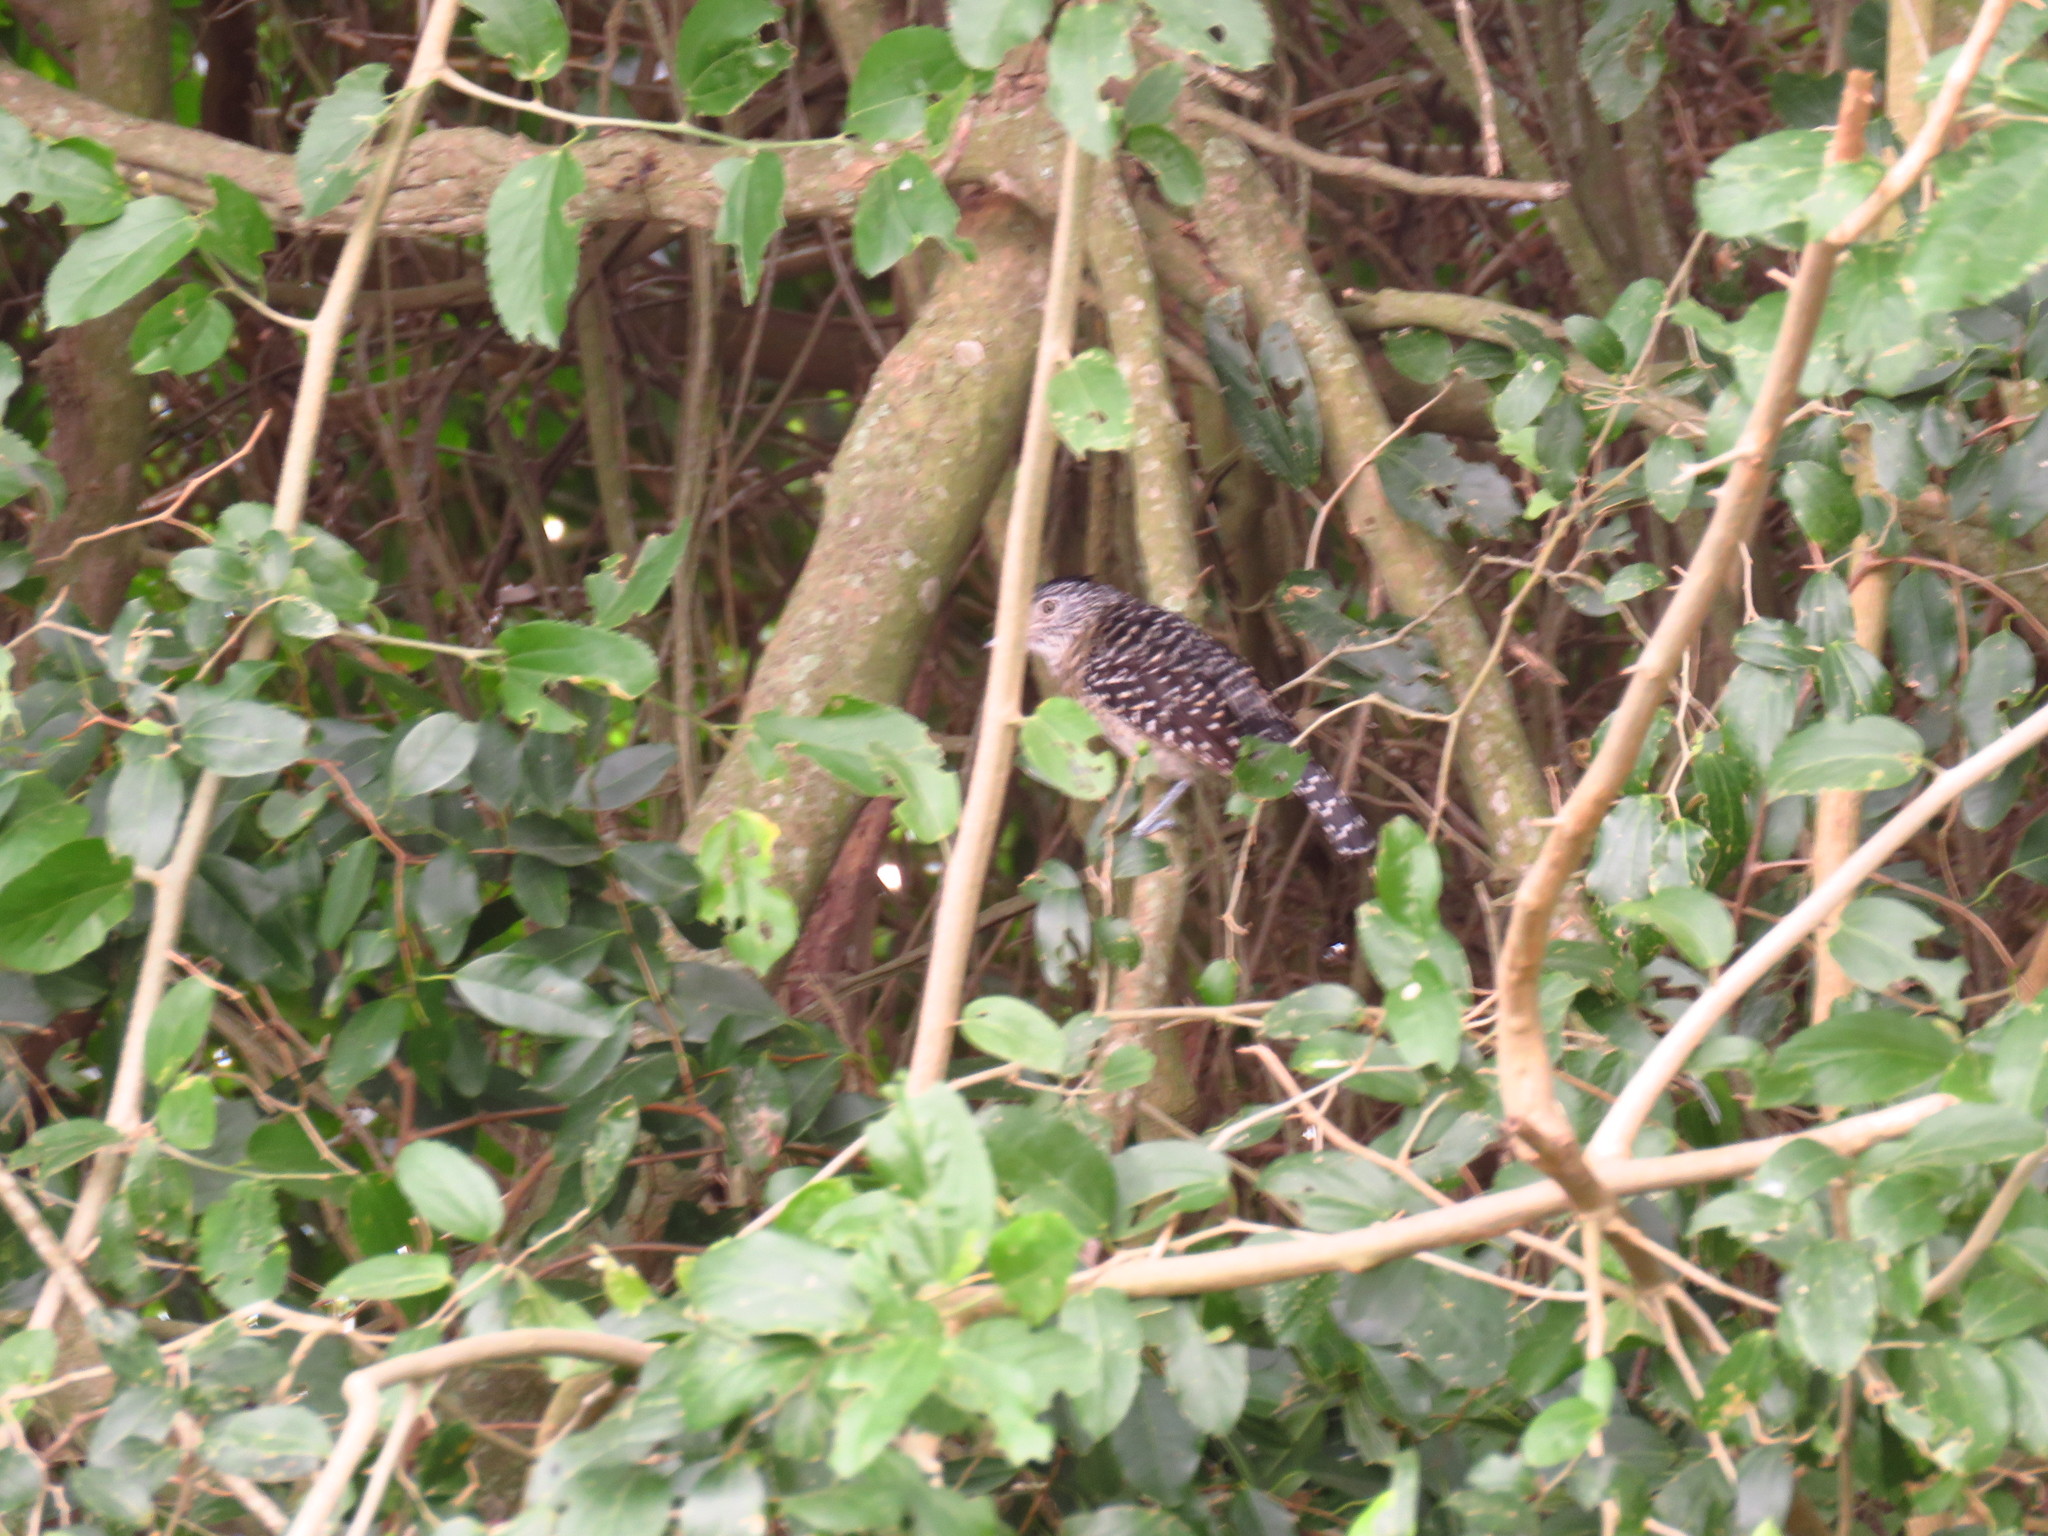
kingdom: Animalia
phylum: Chordata
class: Aves
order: Passeriformes
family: Thamnophilidae
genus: Thamnophilus
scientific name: Thamnophilus doliatus
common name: Barred antshrike
